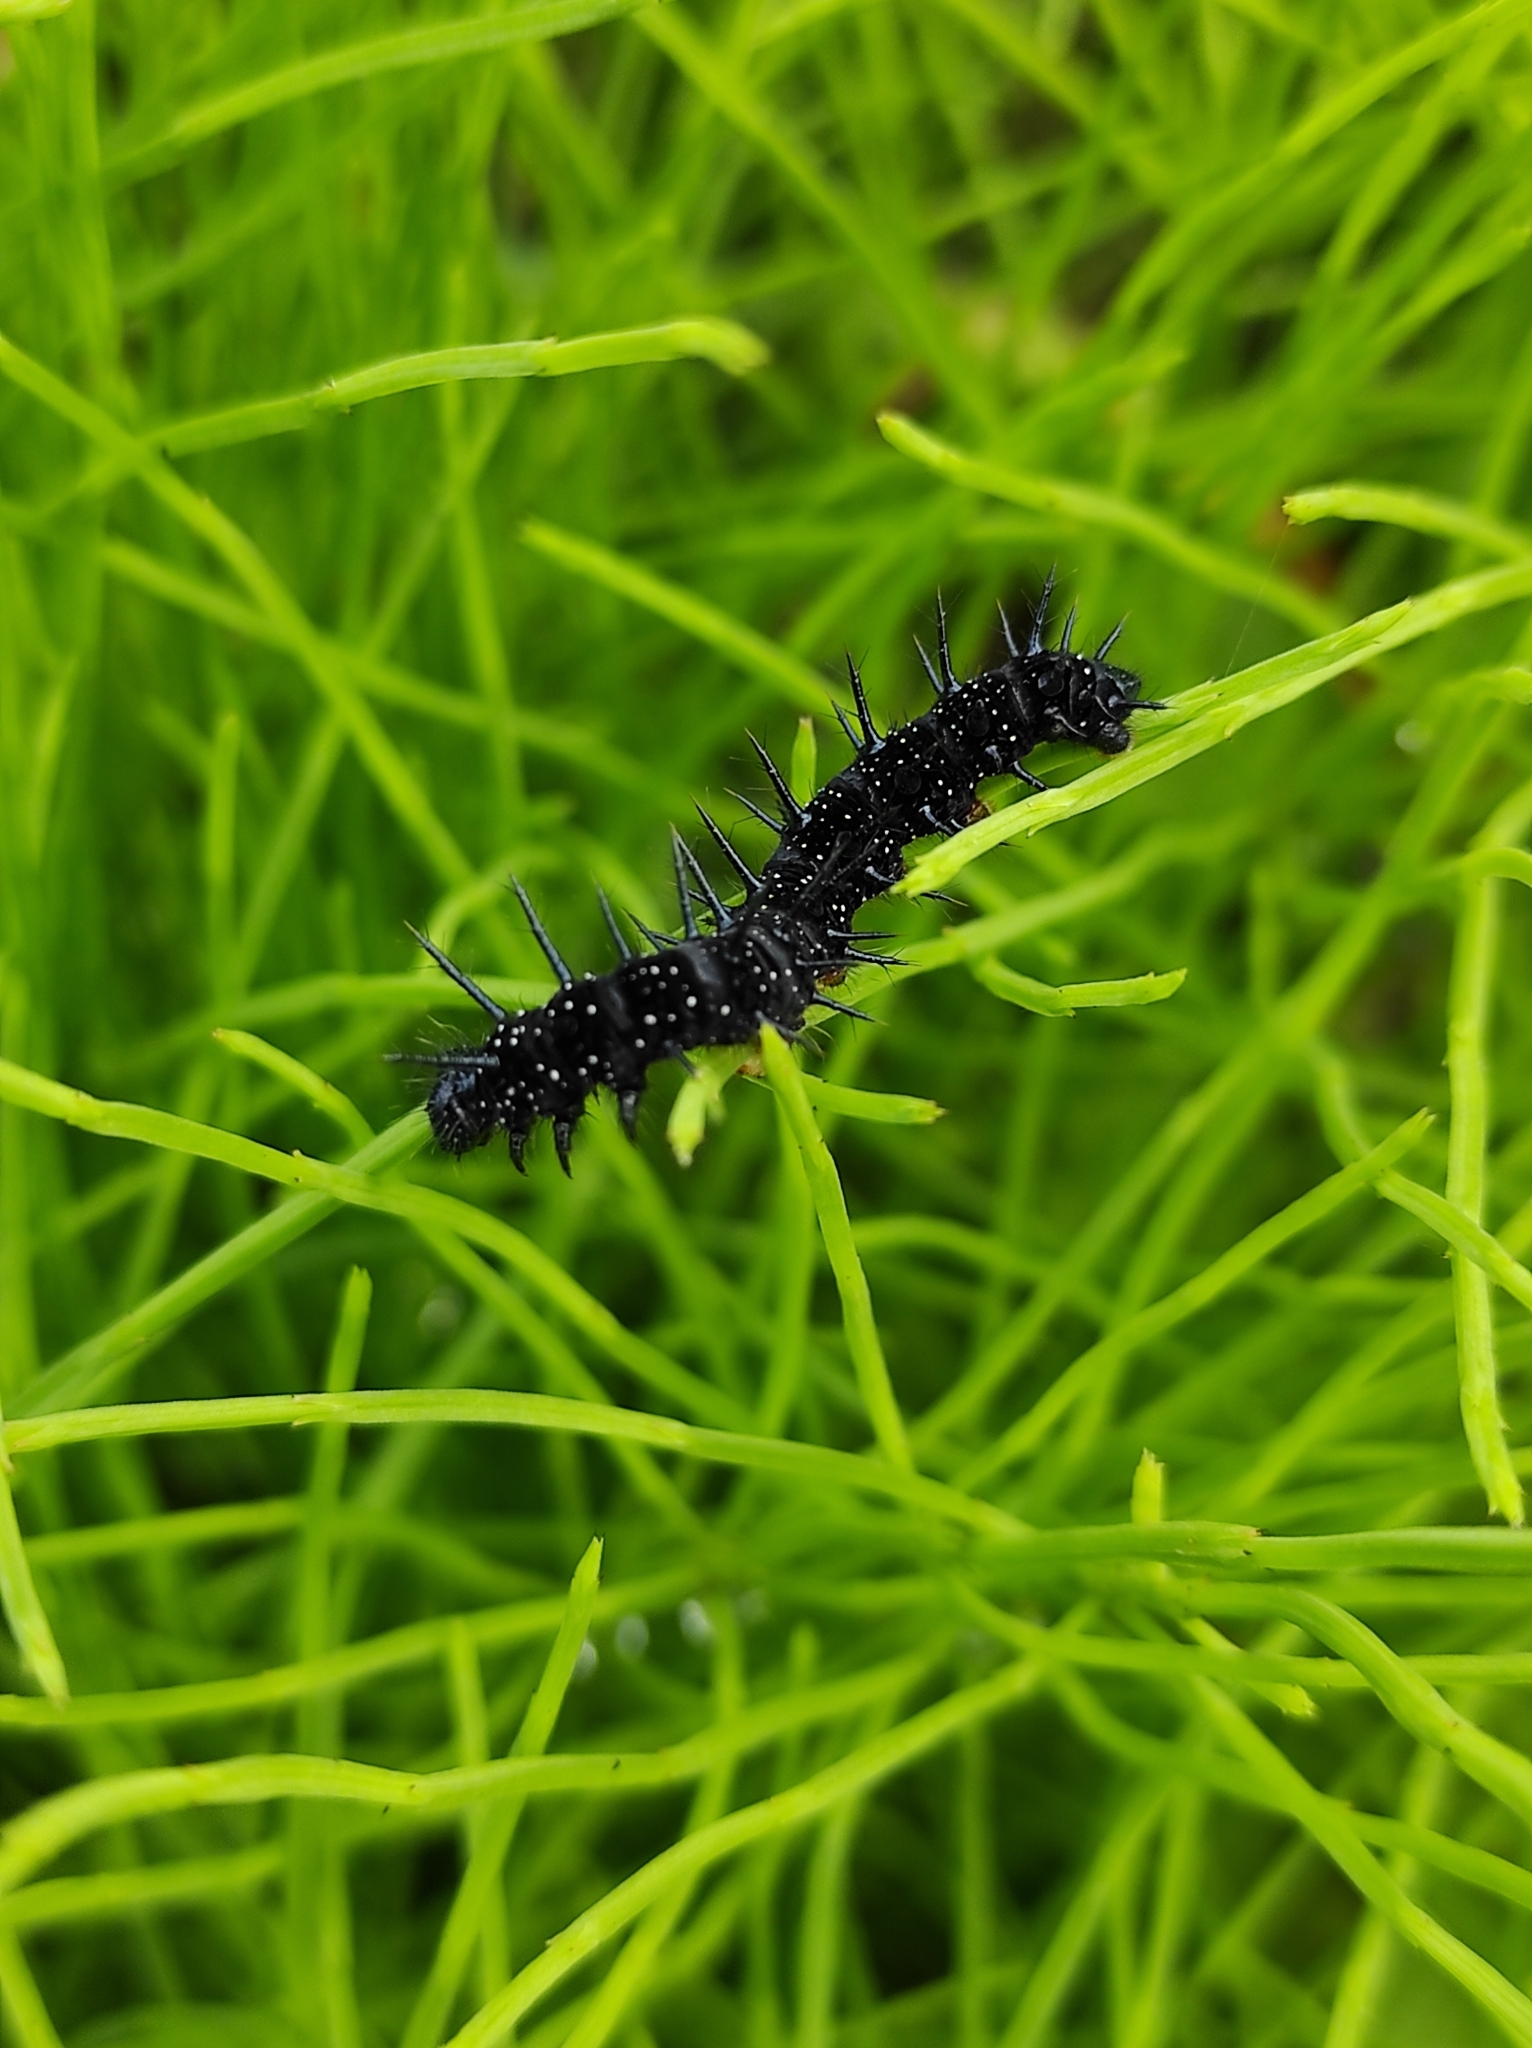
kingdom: Animalia
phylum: Arthropoda
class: Insecta
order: Lepidoptera
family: Nymphalidae
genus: Aglais
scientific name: Aglais io
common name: Peacock
